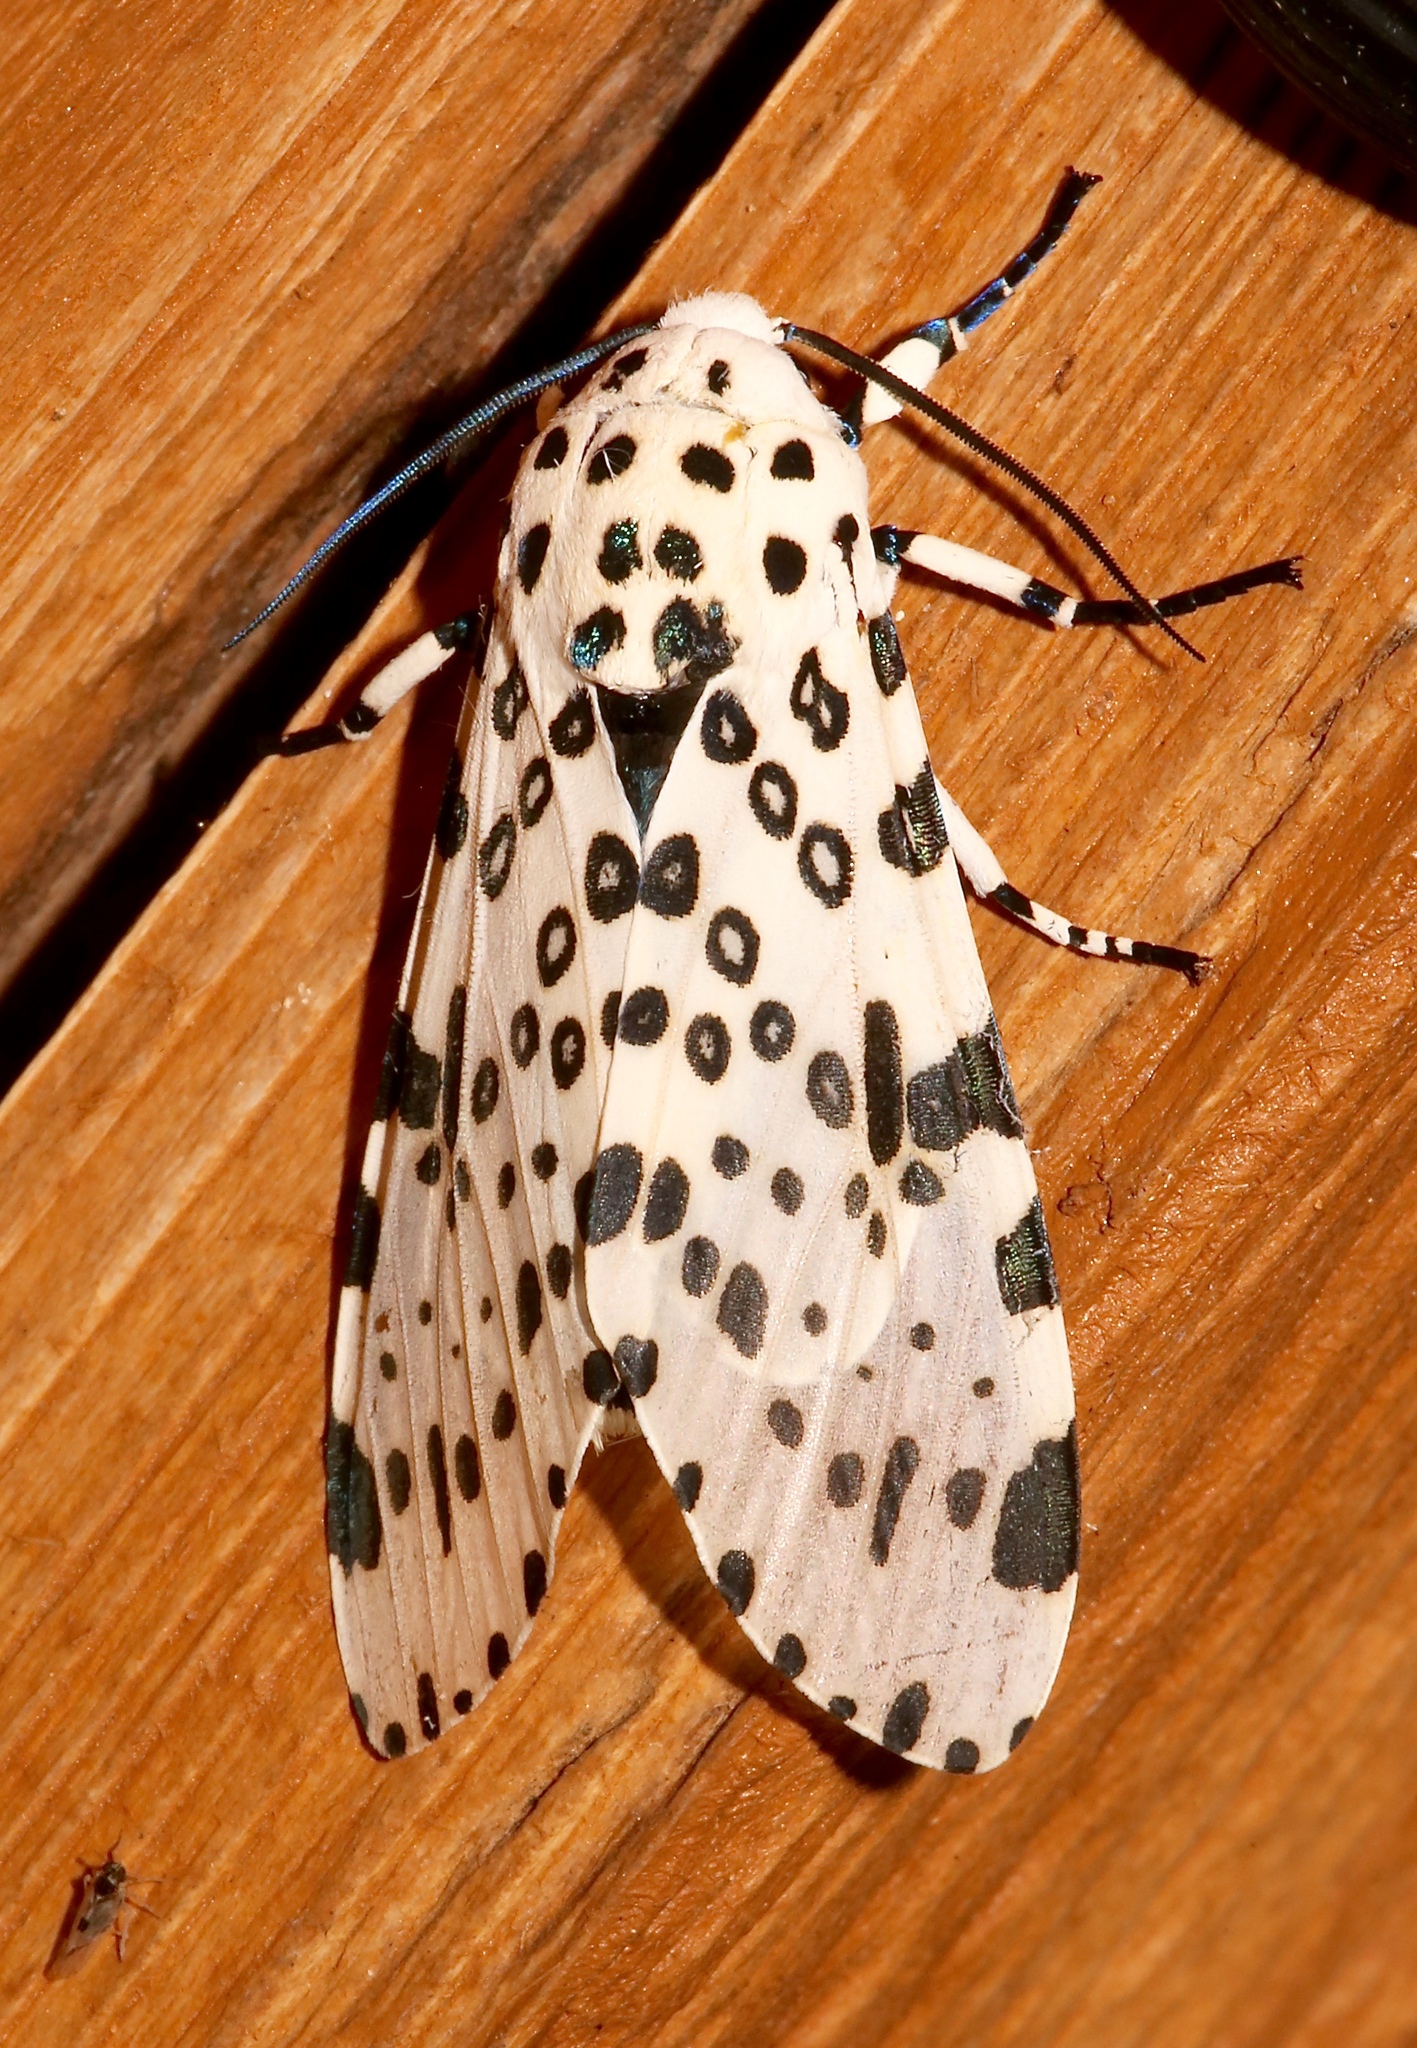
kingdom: Animalia
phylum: Arthropoda
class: Insecta
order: Lepidoptera
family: Erebidae
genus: Hypercompe
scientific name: Hypercompe scribonia
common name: Giant leopard moth
